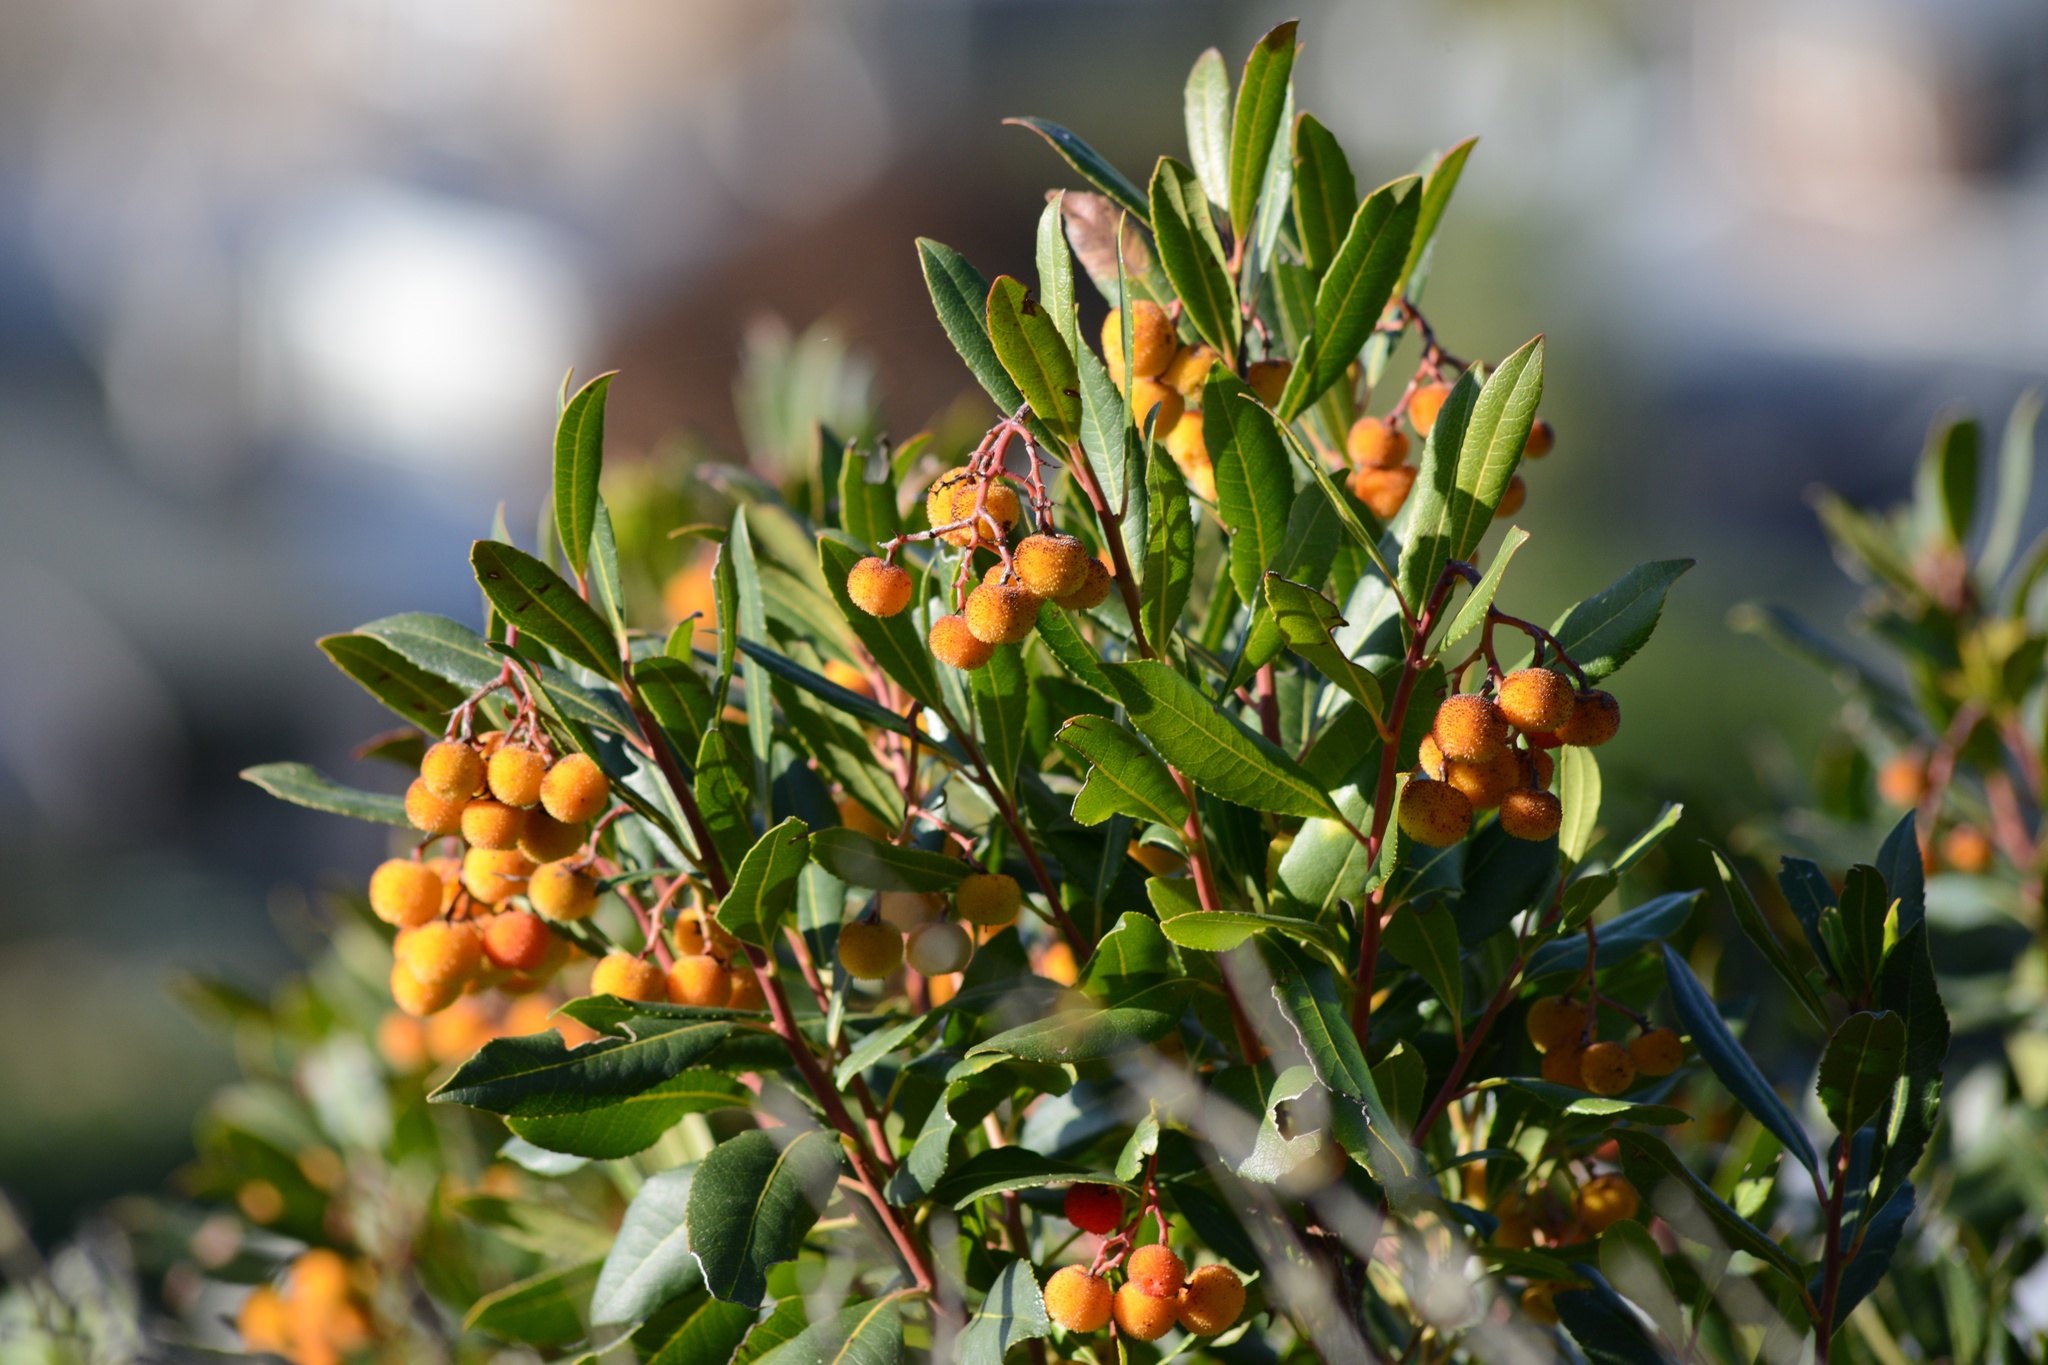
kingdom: Plantae
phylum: Tracheophyta
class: Magnoliopsida
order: Ericales
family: Ericaceae
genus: Arbutus
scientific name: Arbutus unedo
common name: Strawberry-tree
